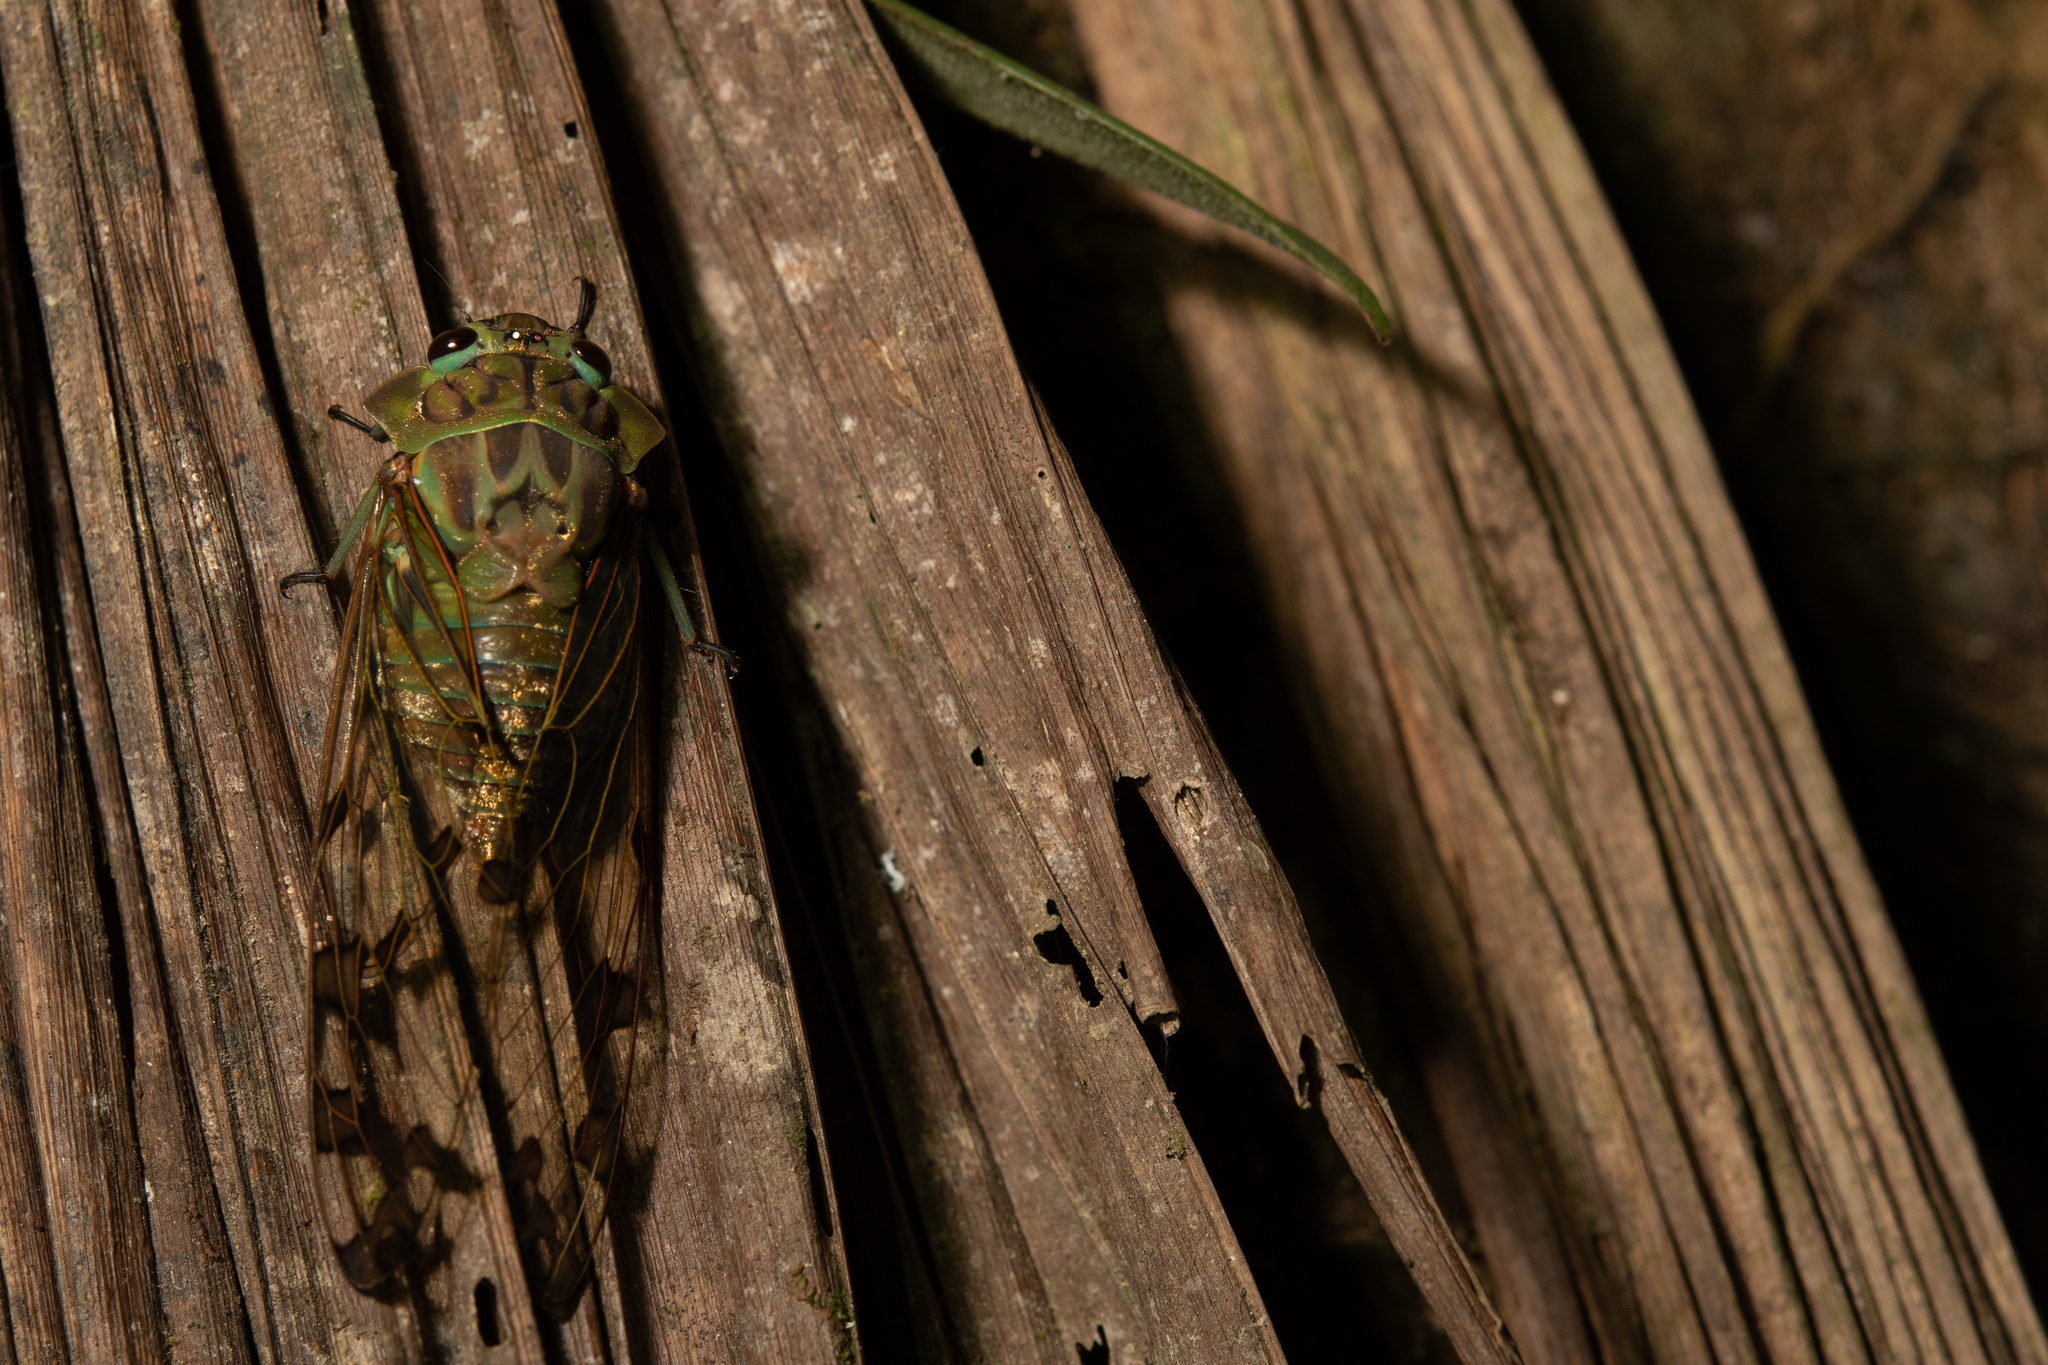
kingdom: Animalia
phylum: Arthropoda
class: Insecta
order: Hemiptera
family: Cicadidae
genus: Zammara
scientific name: Zammara smaragdina
